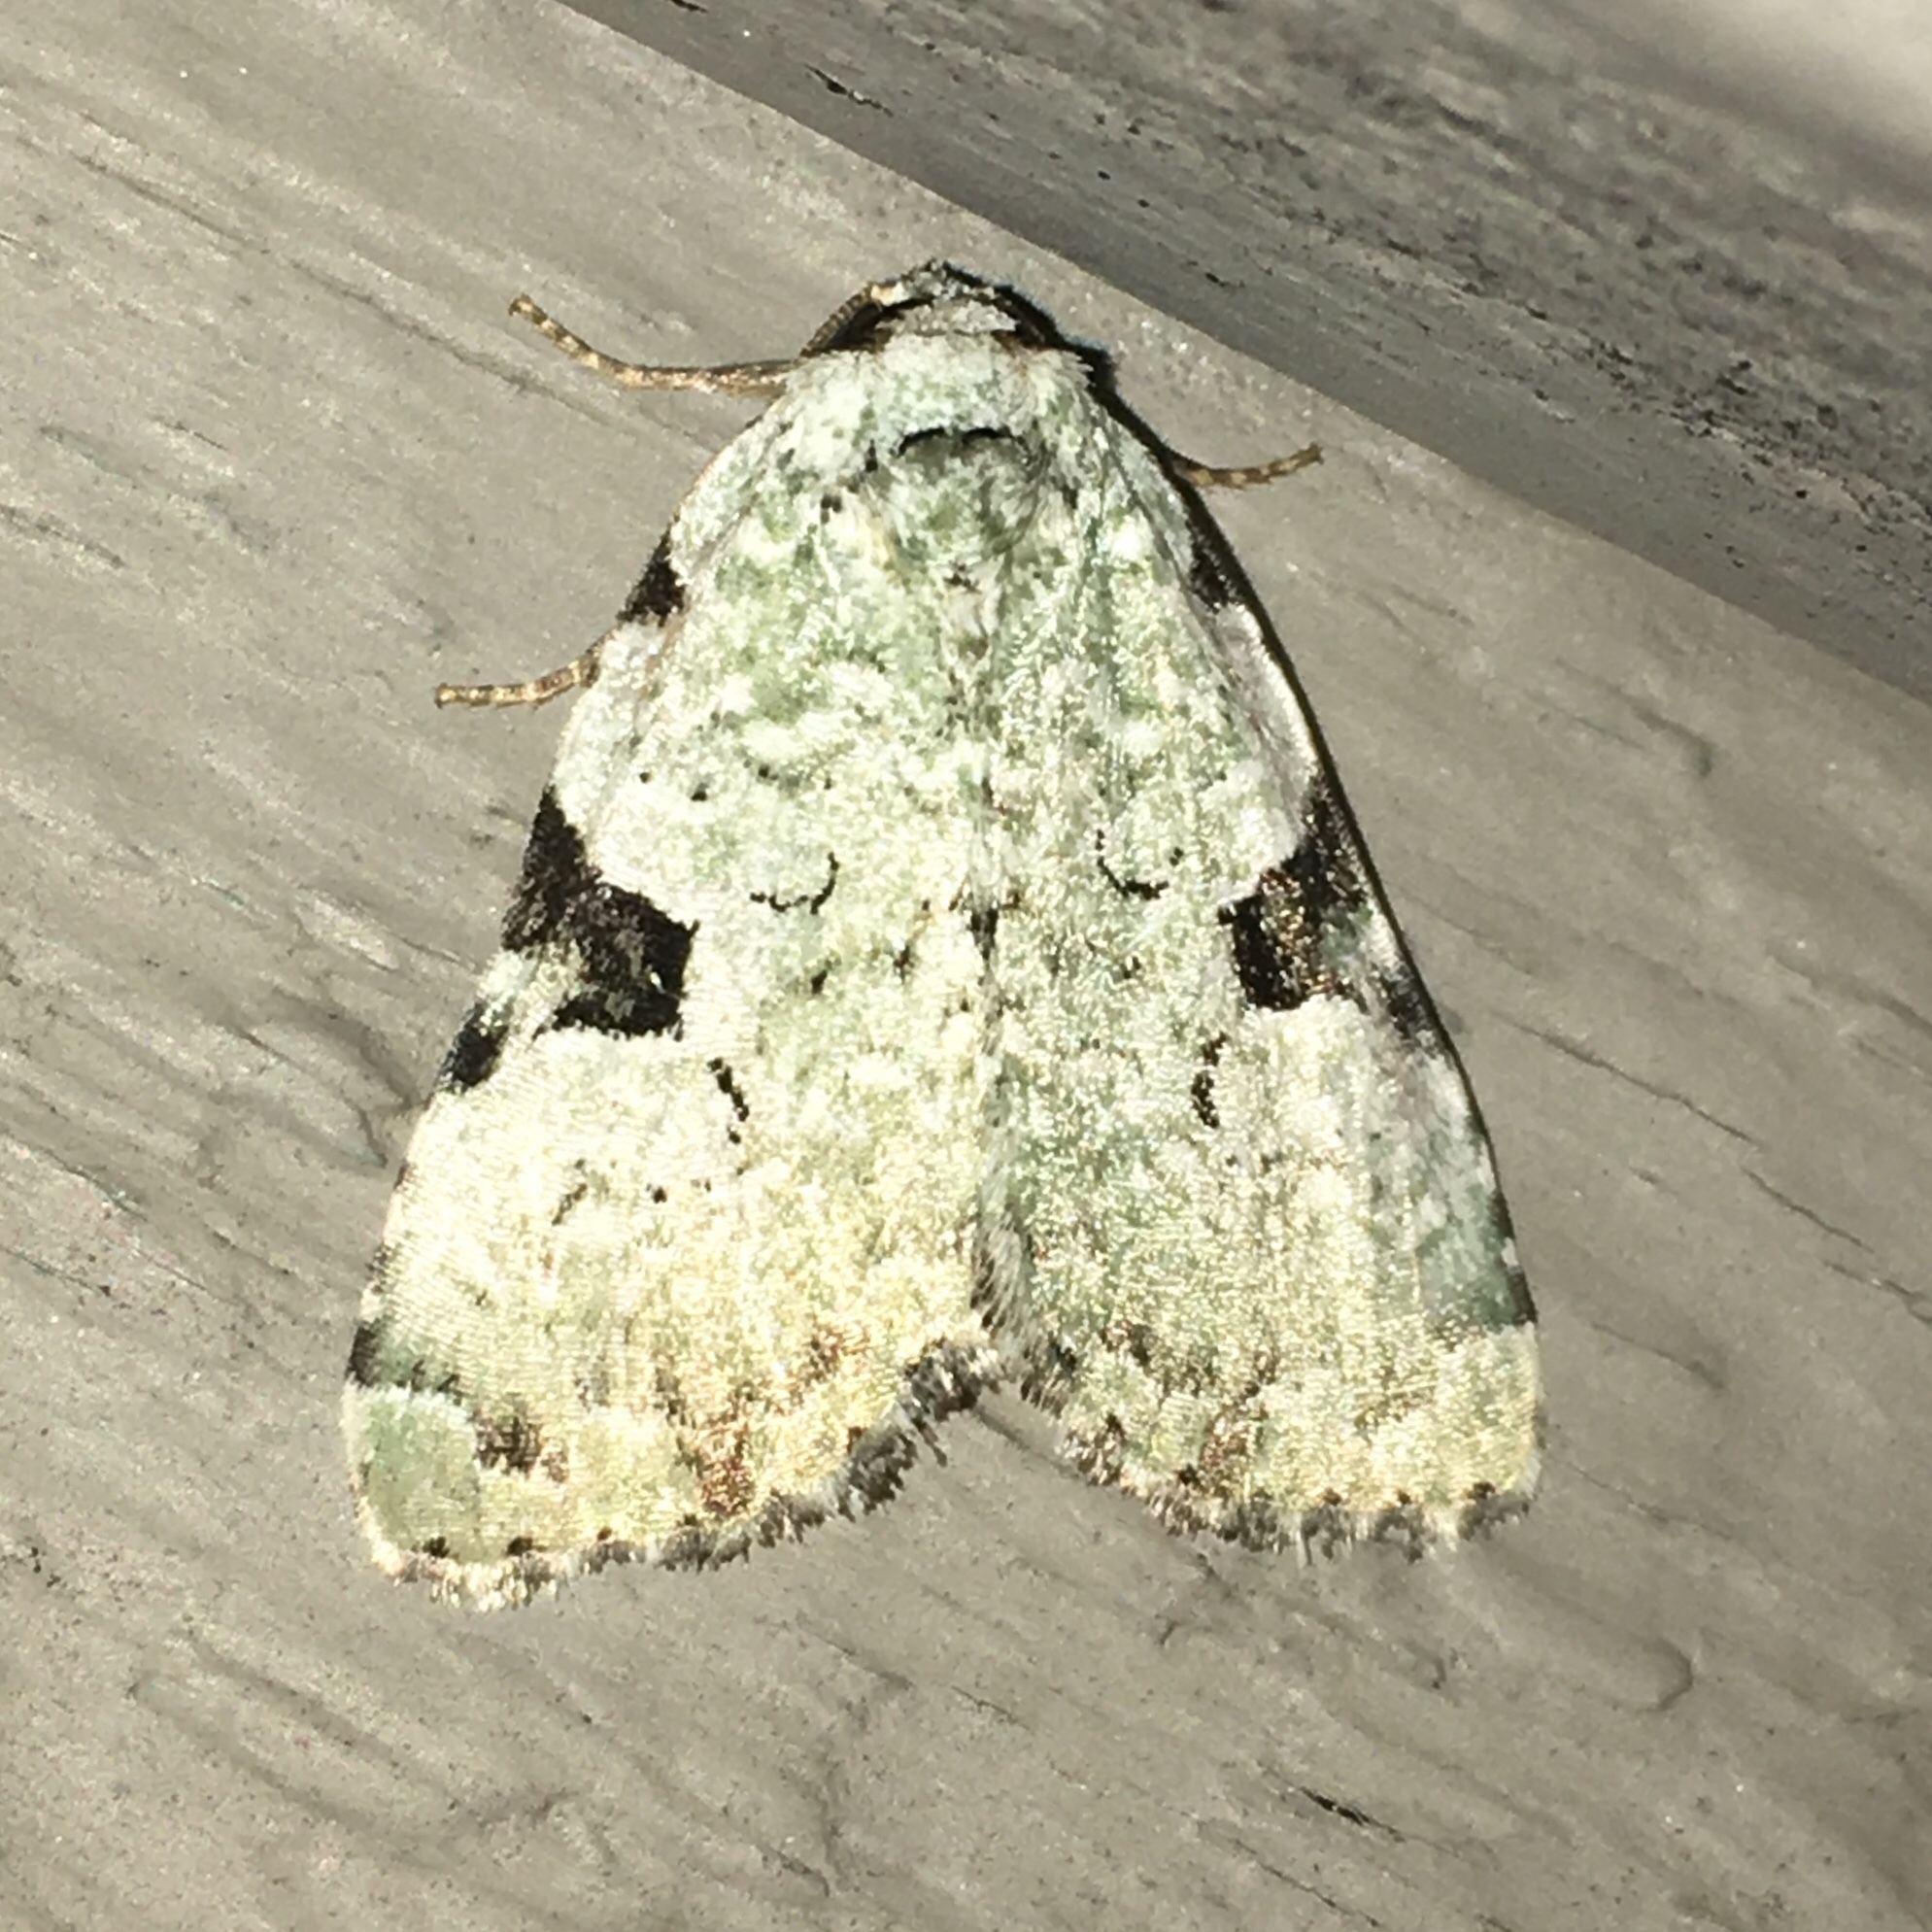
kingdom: Animalia
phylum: Arthropoda
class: Insecta
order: Lepidoptera
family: Noctuidae
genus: Leuconycta
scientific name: Leuconycta diphteroides
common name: Green leuconycta moth
